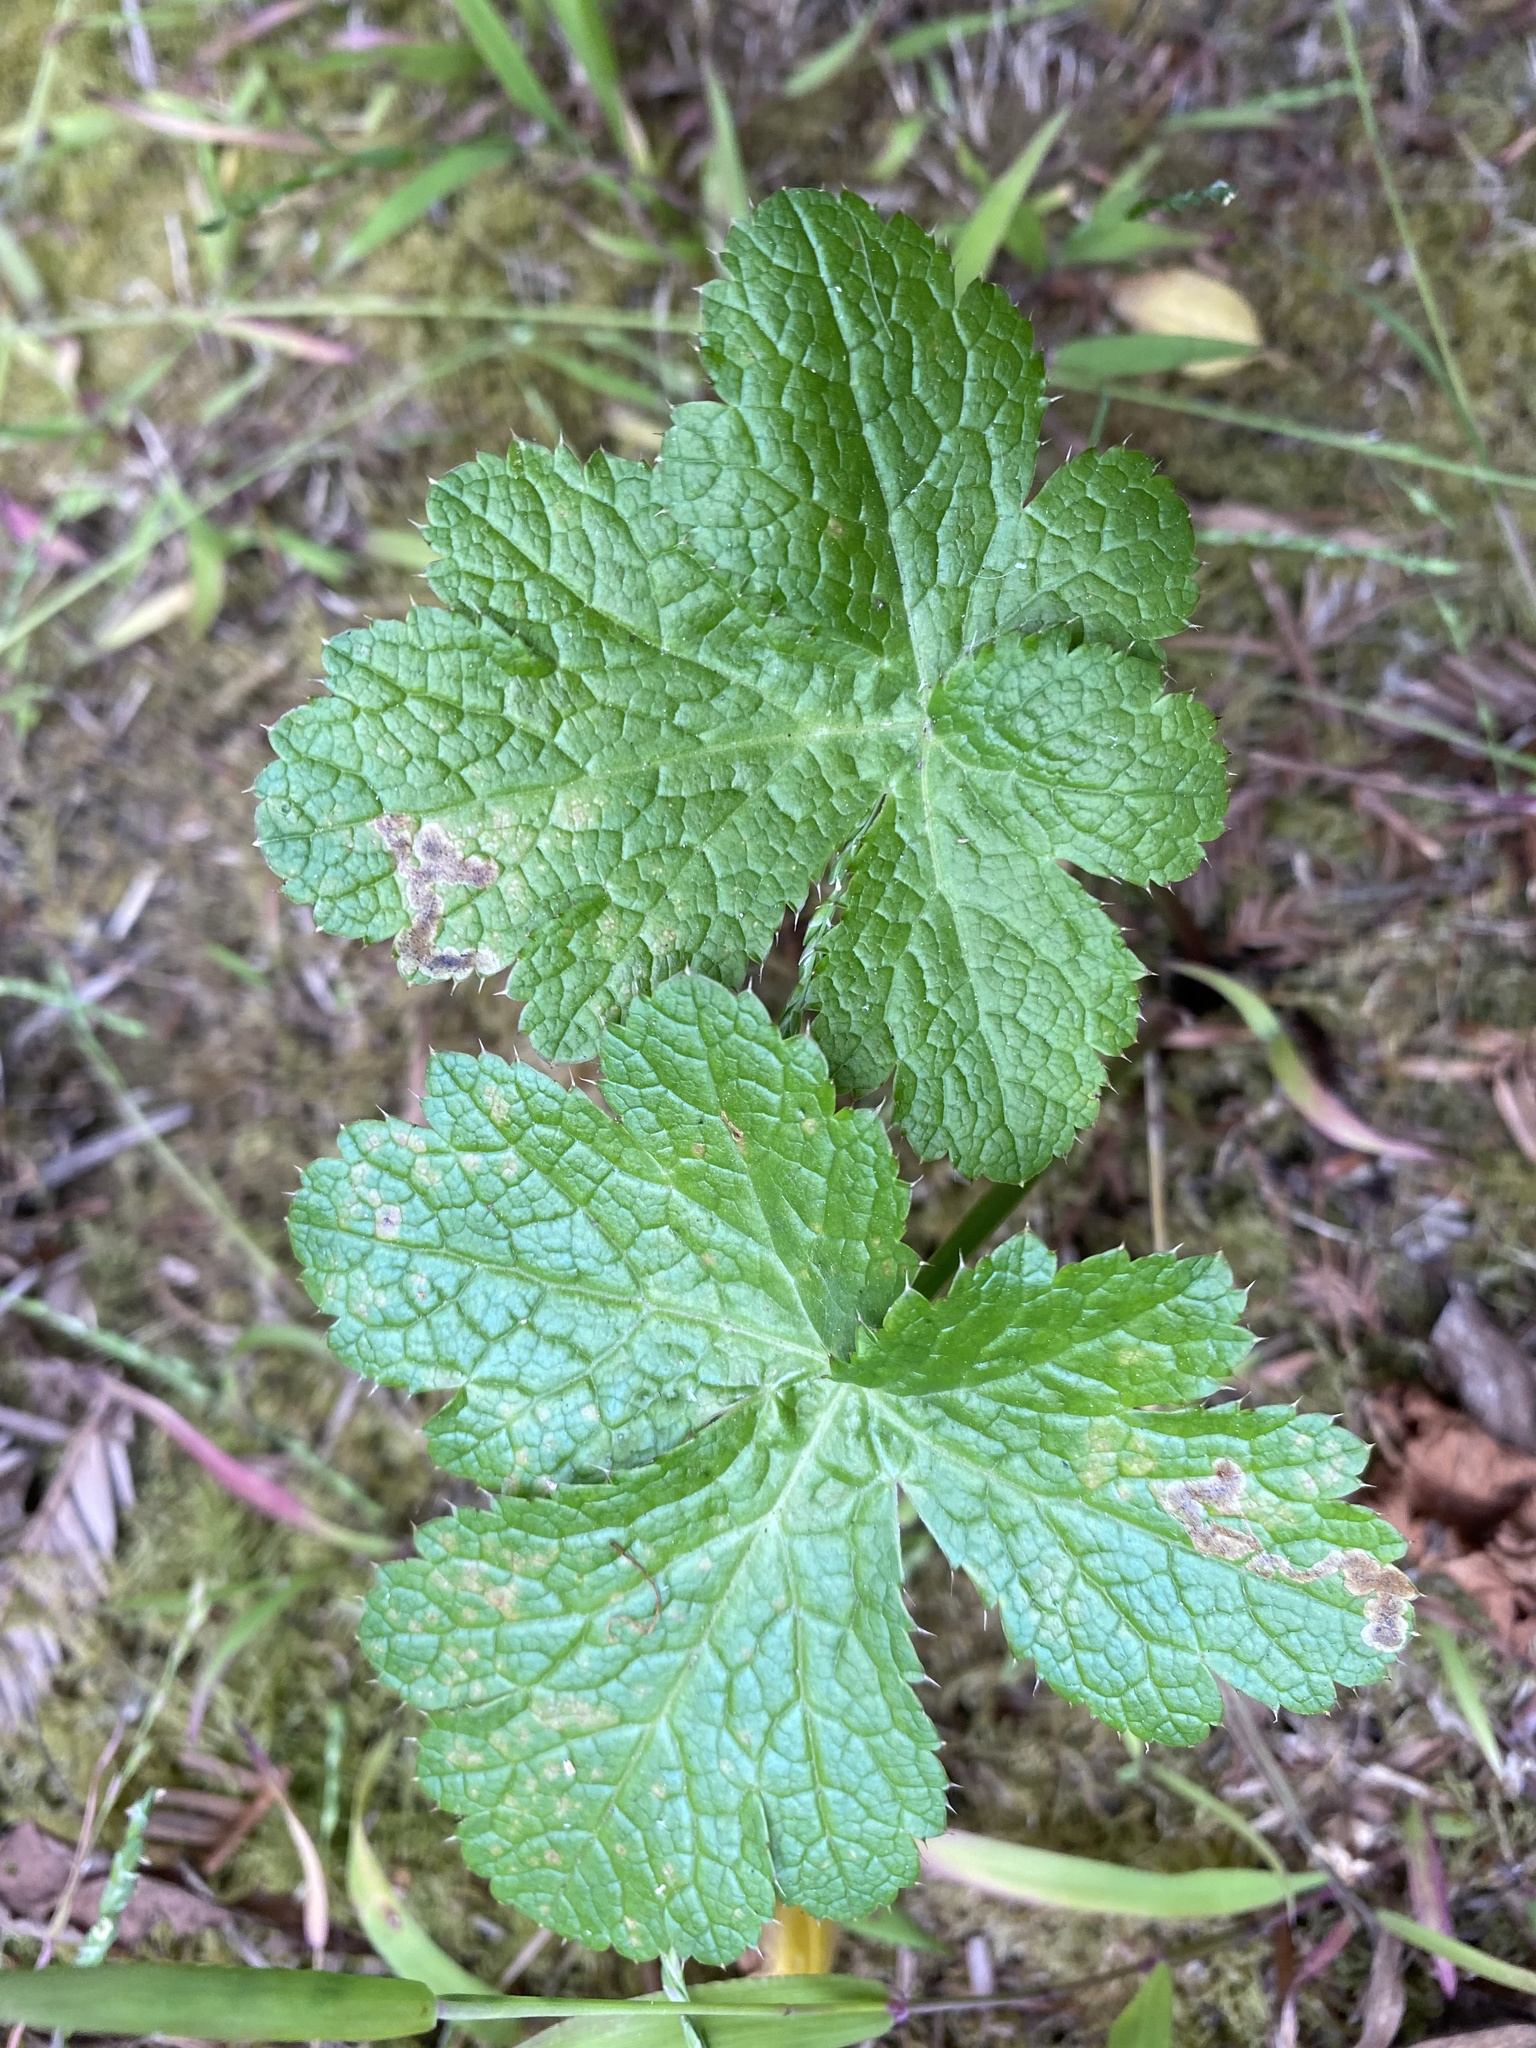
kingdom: Plantae
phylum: Tracheophyta
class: Magnoliopsida
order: Apiales
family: Apiaceae
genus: Sanicula
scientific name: Sanicula crassicaulis
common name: Western snakeroot
